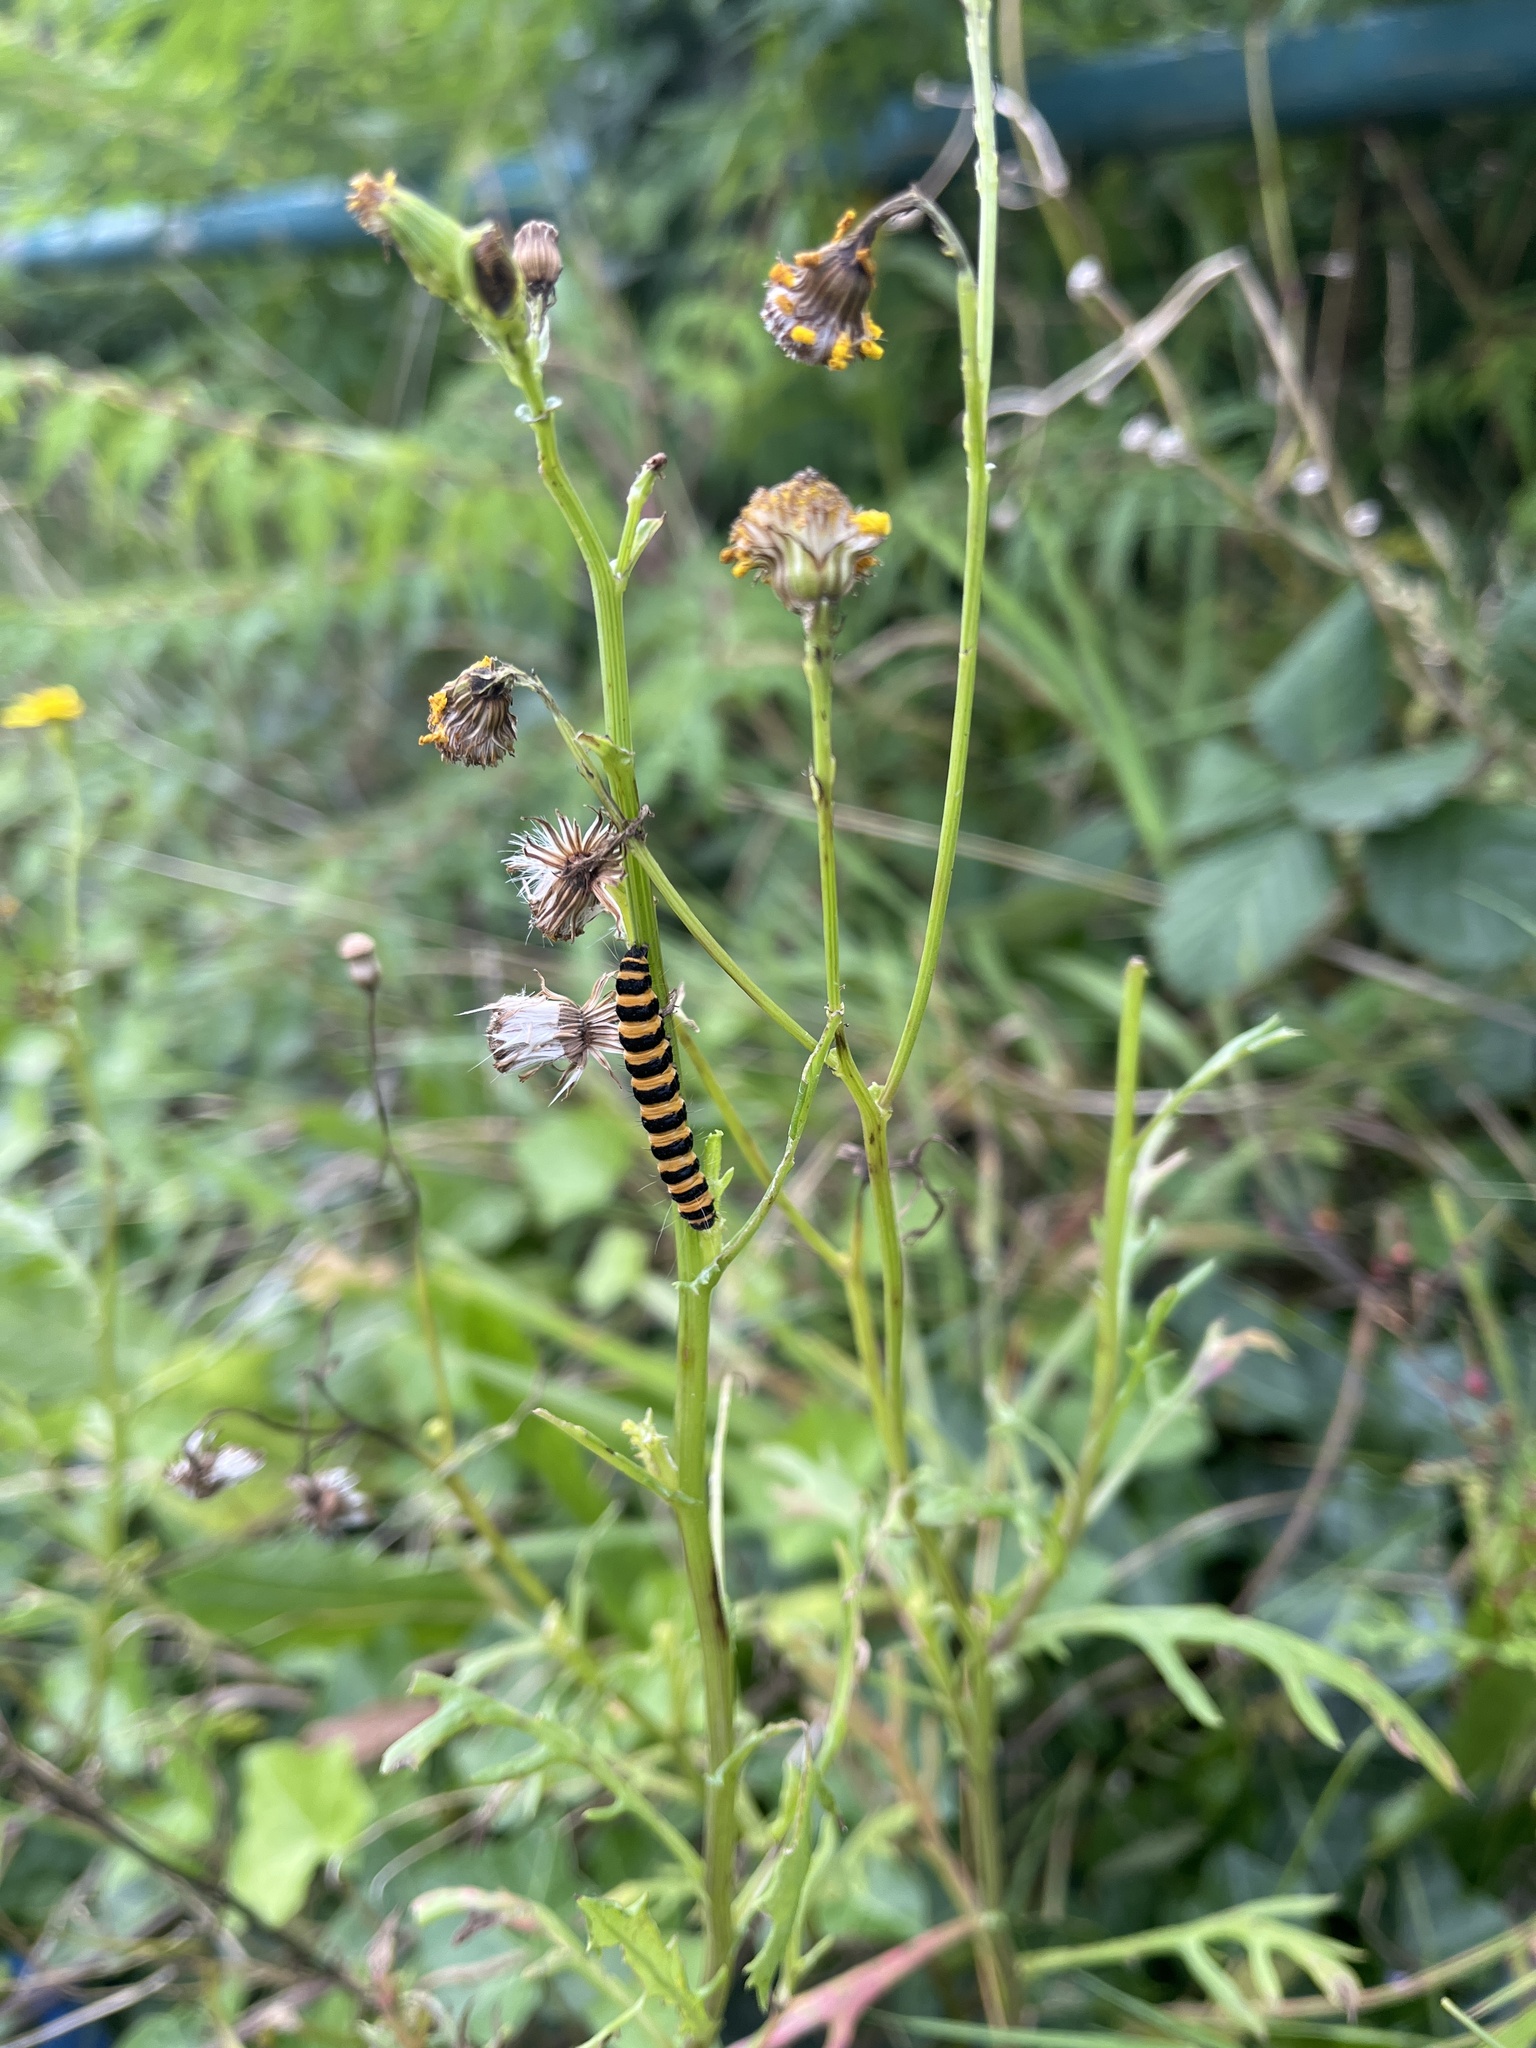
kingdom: Animalia
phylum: Arthropoda
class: Insecta
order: Lepidoptera
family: Erebidae
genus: Tyria
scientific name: Tyria jacobaeae
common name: Cinnabar
